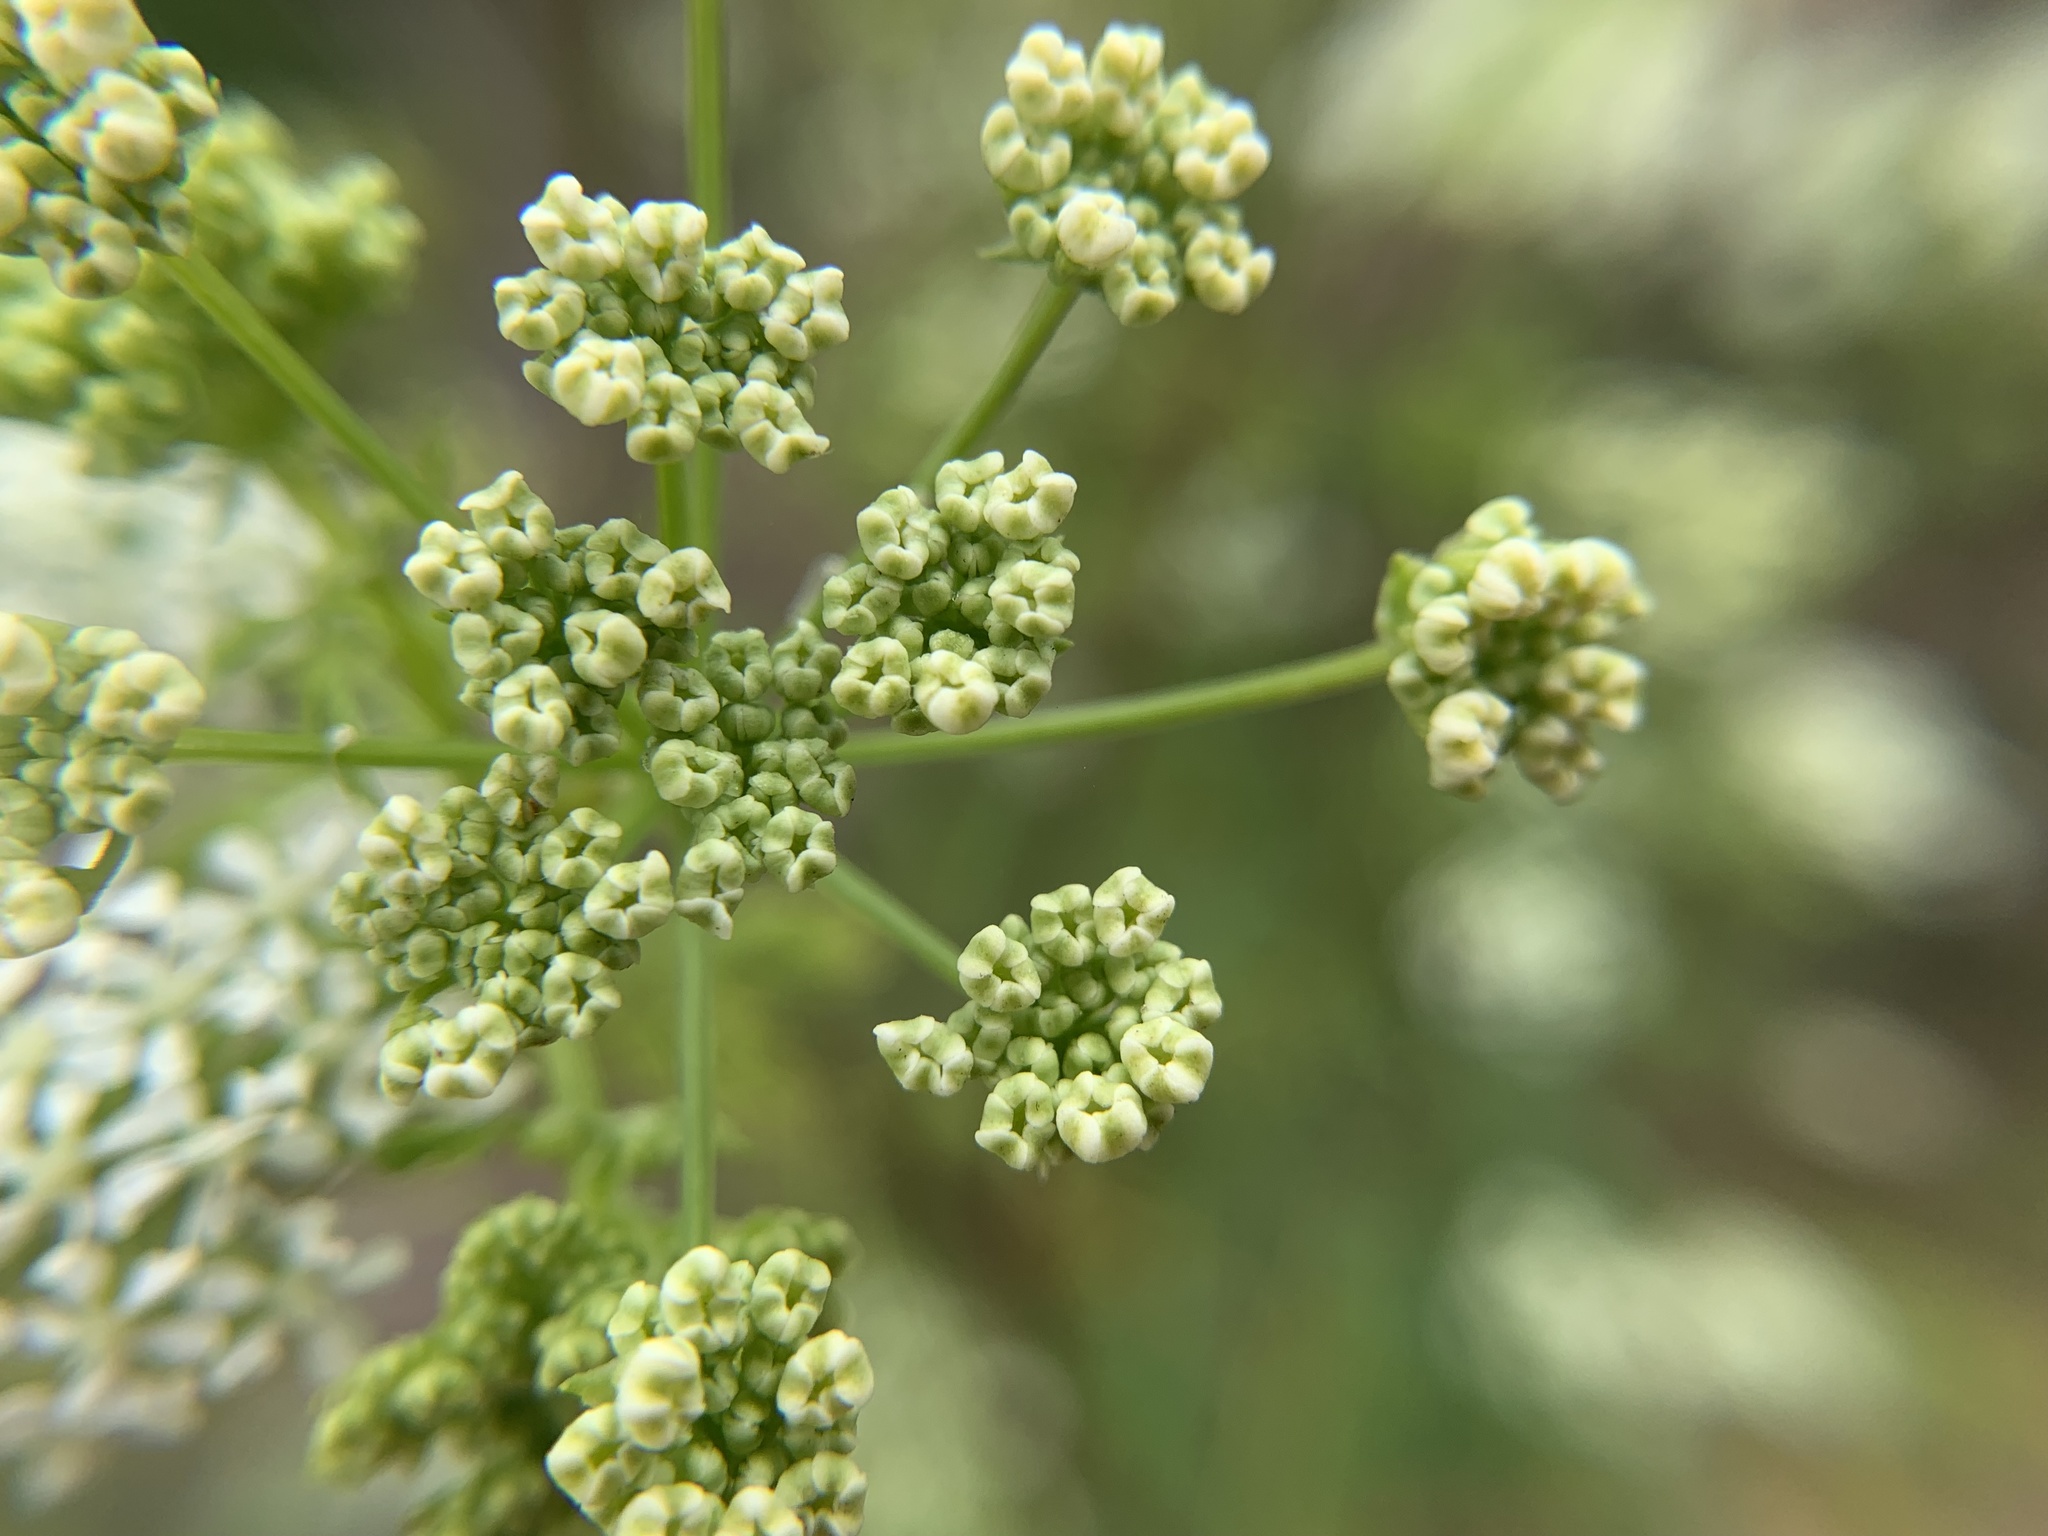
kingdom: Plantae
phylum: Tracheophyta
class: Magnoliopsida
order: Apiales
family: Apiaceae
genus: Conium
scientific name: Conium maculatum
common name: Hemlock
